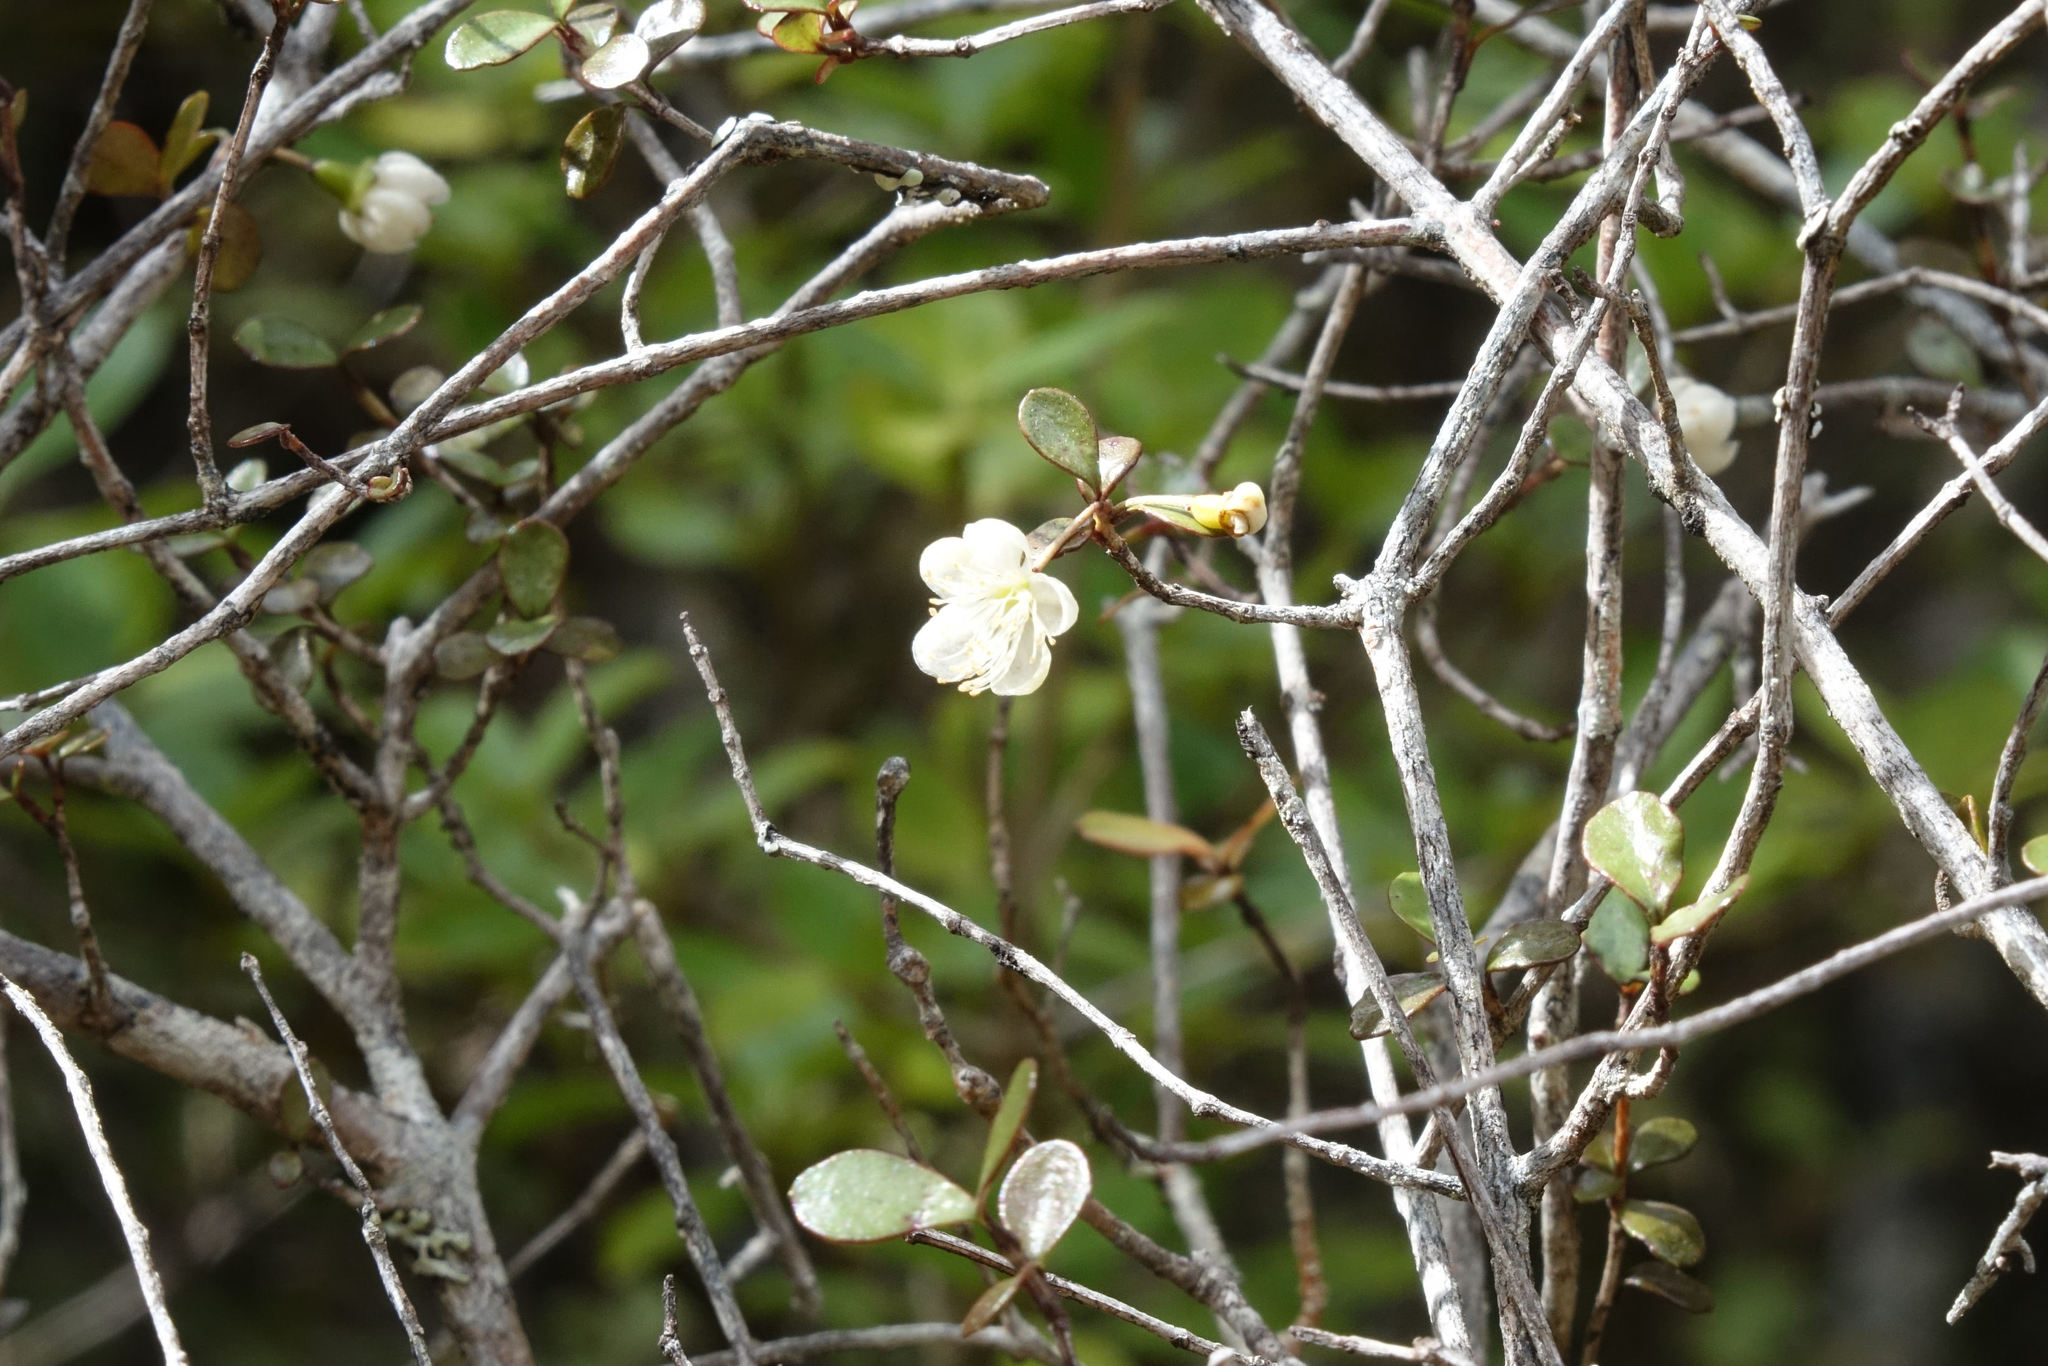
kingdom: Plantae
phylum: Tracheophyta
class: Magnoliopsida
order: Myrtales
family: Myrtaceae
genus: Neomyrtus
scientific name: Neomyrtus pedunculata
